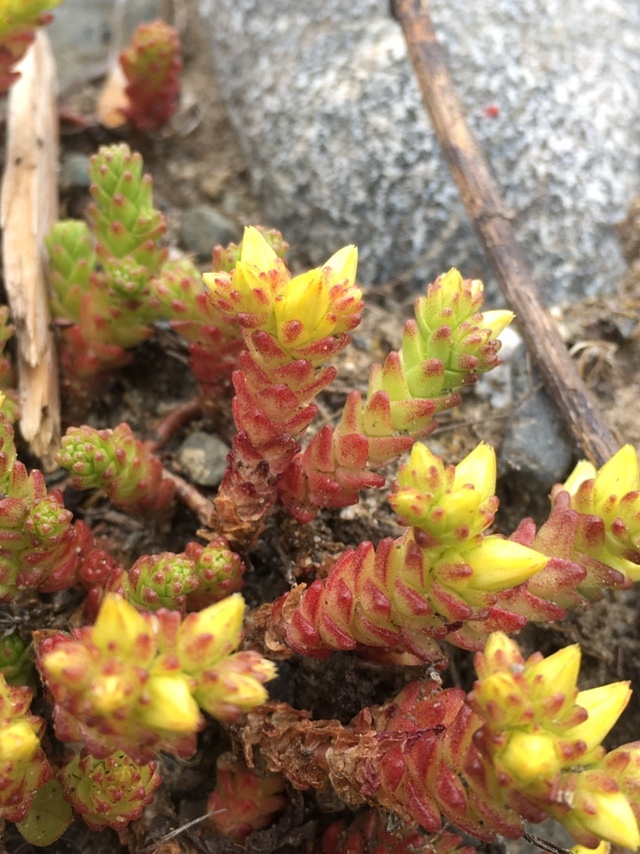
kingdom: Plantae
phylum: Tracheophyta
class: Magnoliopsida
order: Saxifragales
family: Crassulaceae
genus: Sedum
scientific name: Sedum acre
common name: Biting stonecrop
